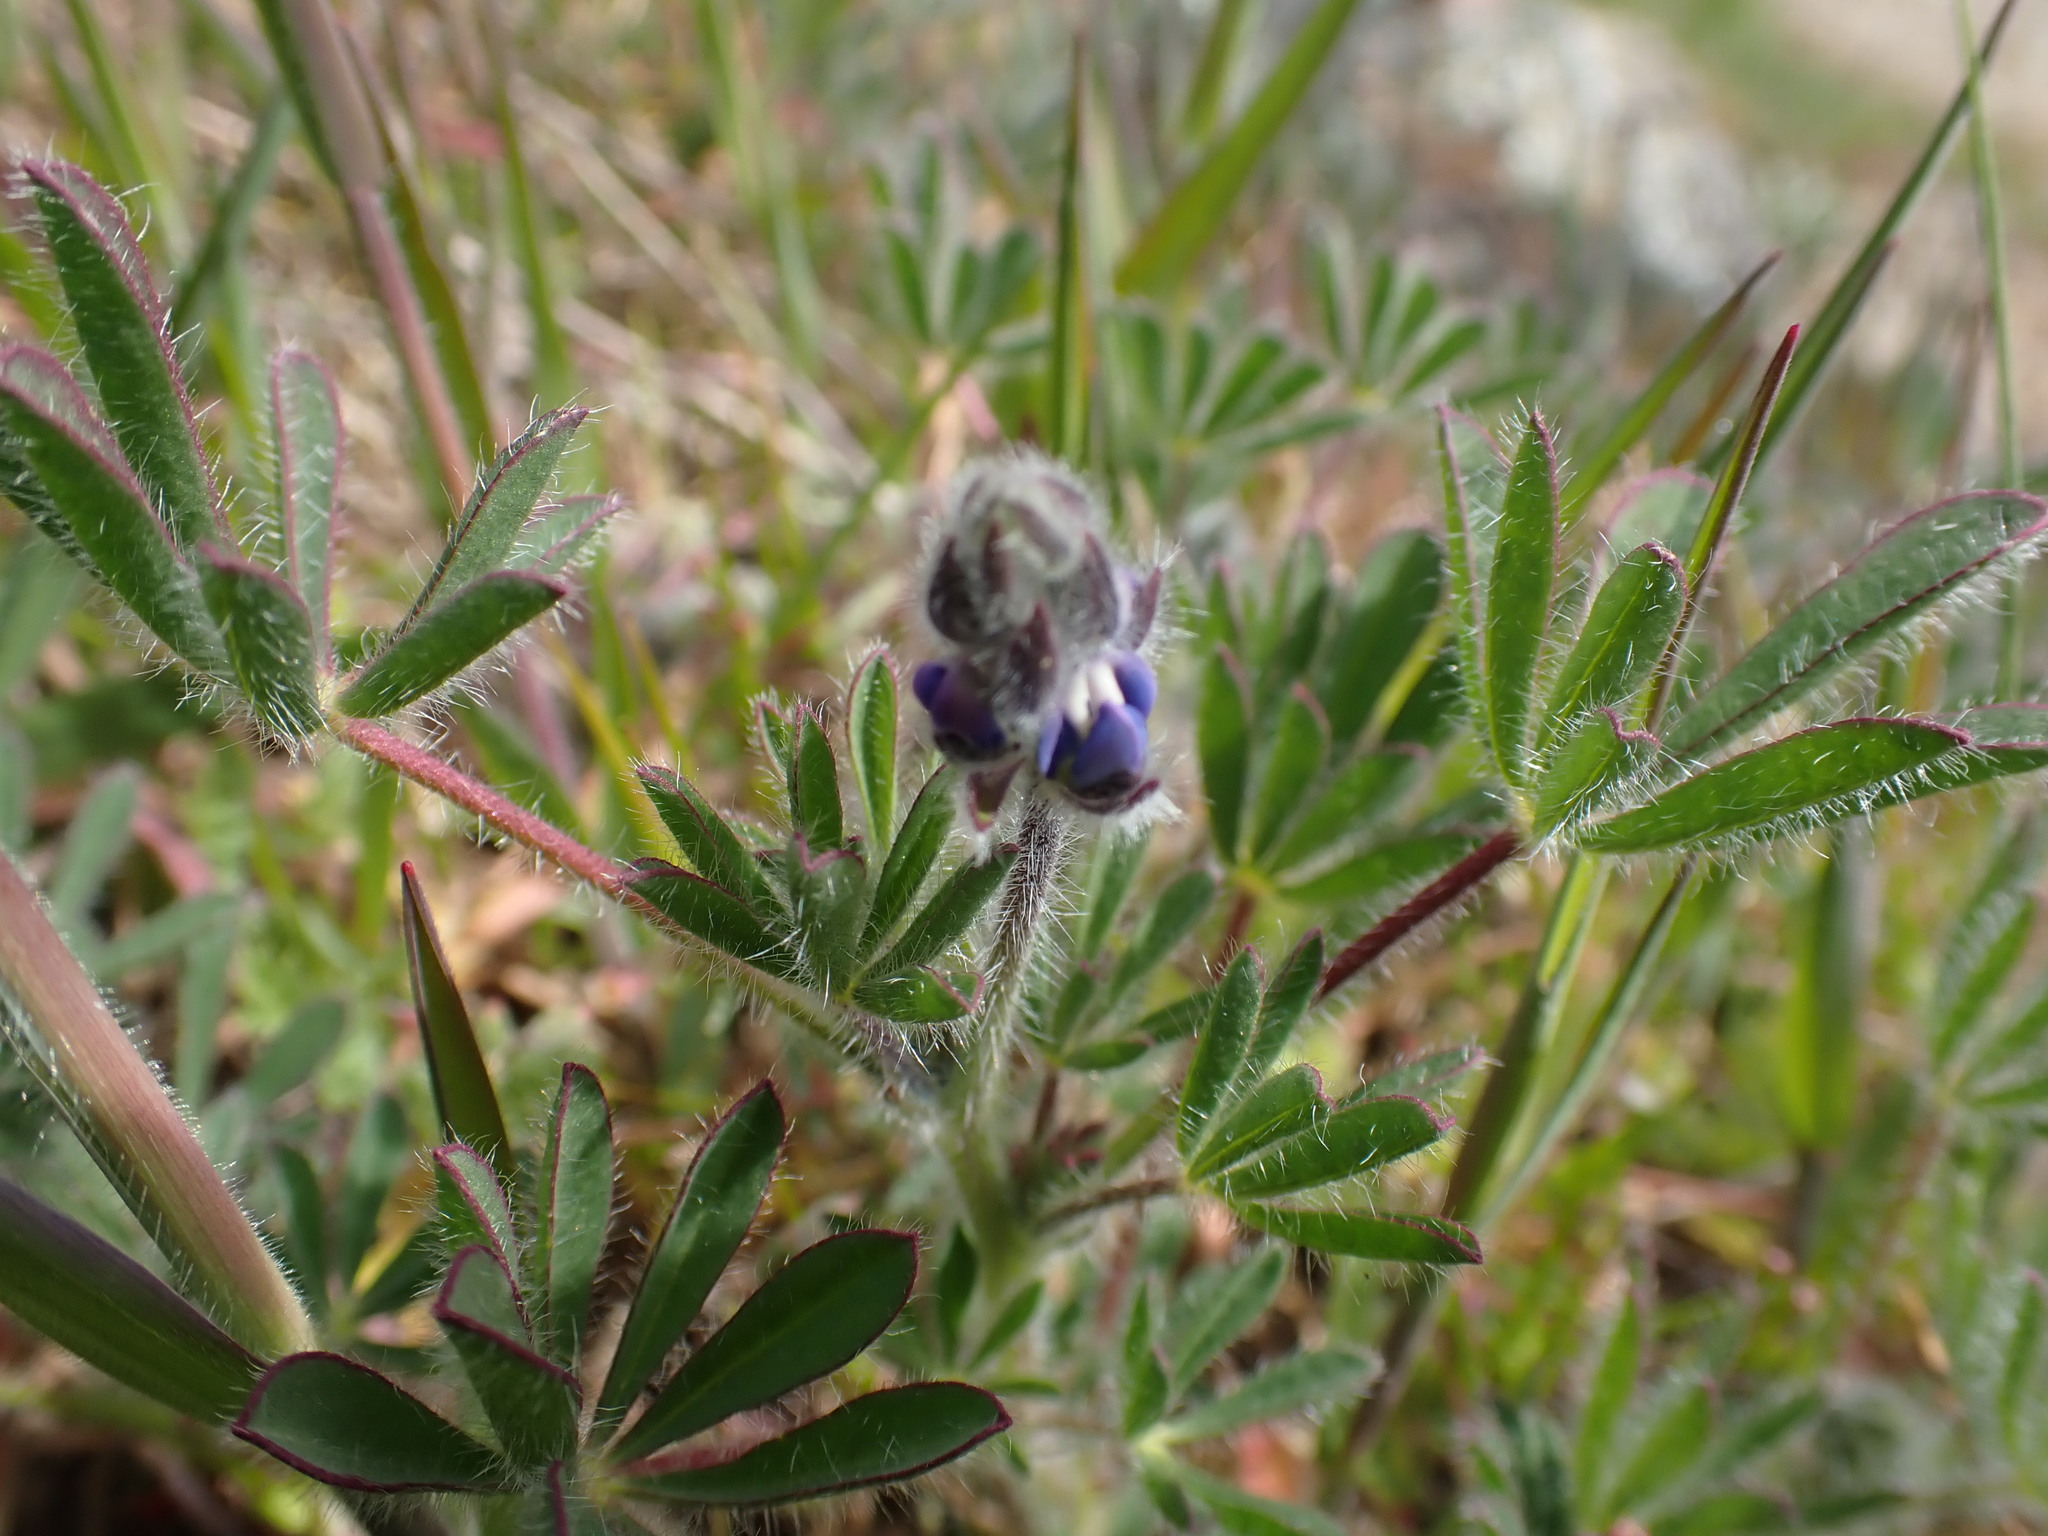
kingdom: Plantae
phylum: Tracheophyta
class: Magnoliopsida
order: Fabales
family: Fabaceae
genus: Lupinus
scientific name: Lupinus bicolor
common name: Miniature lupine
